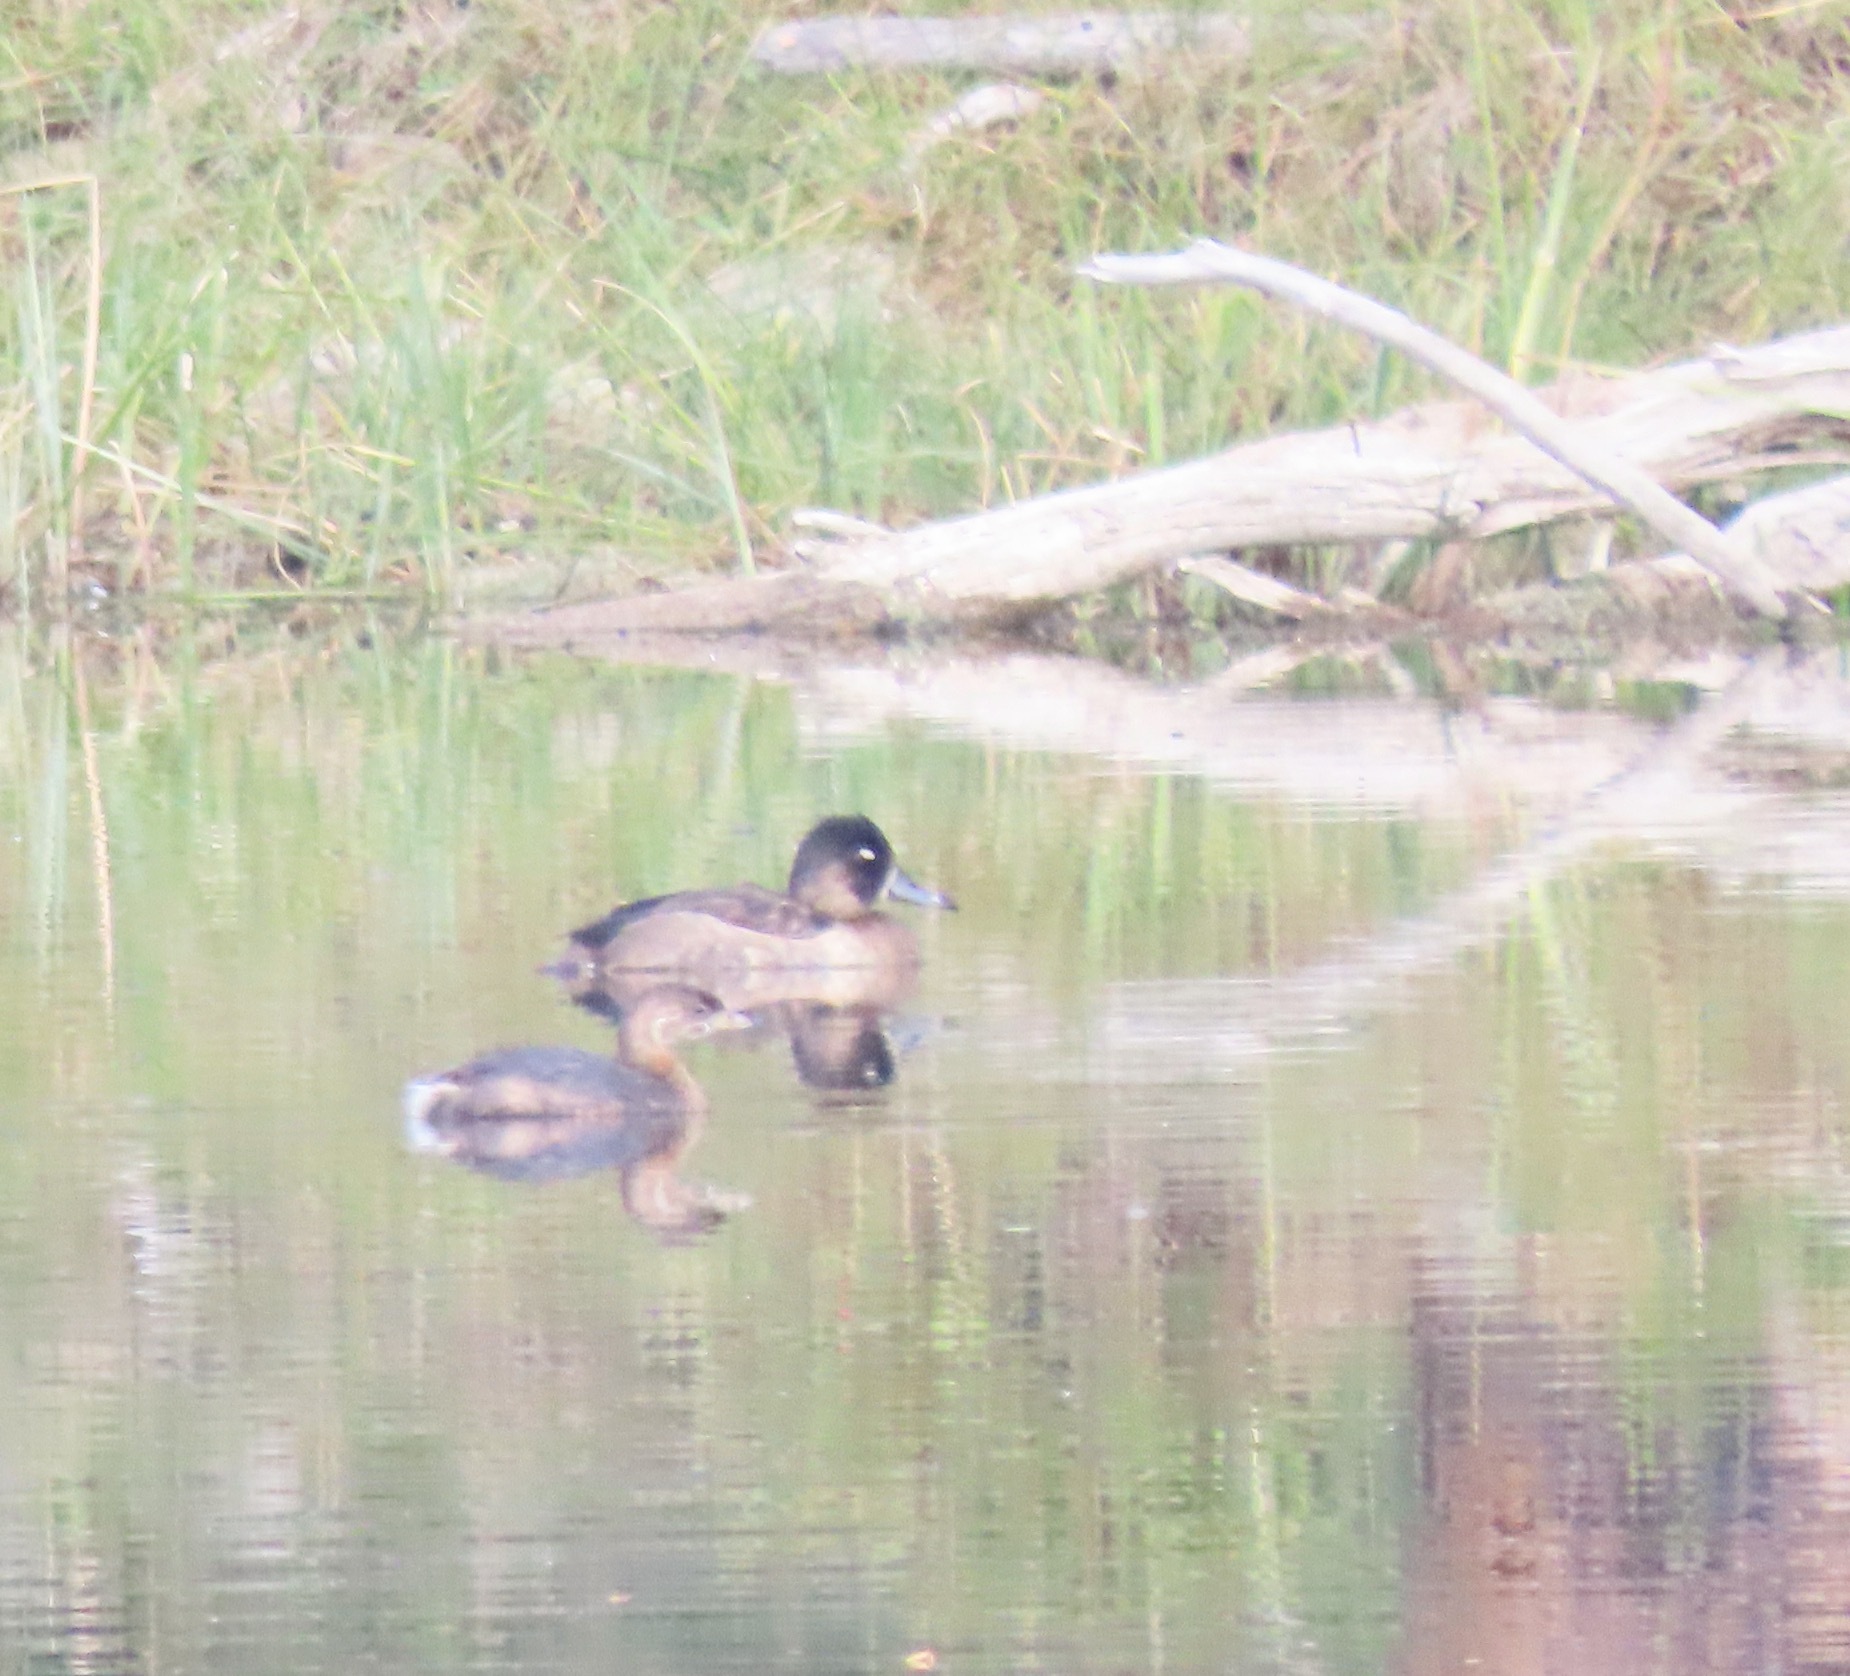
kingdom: Animalia
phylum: Chordata
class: Aves
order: Podicipediformes
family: Podicipedidae
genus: Podilymbus
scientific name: Podilymbus podiceps
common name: Pied-billed grebe
